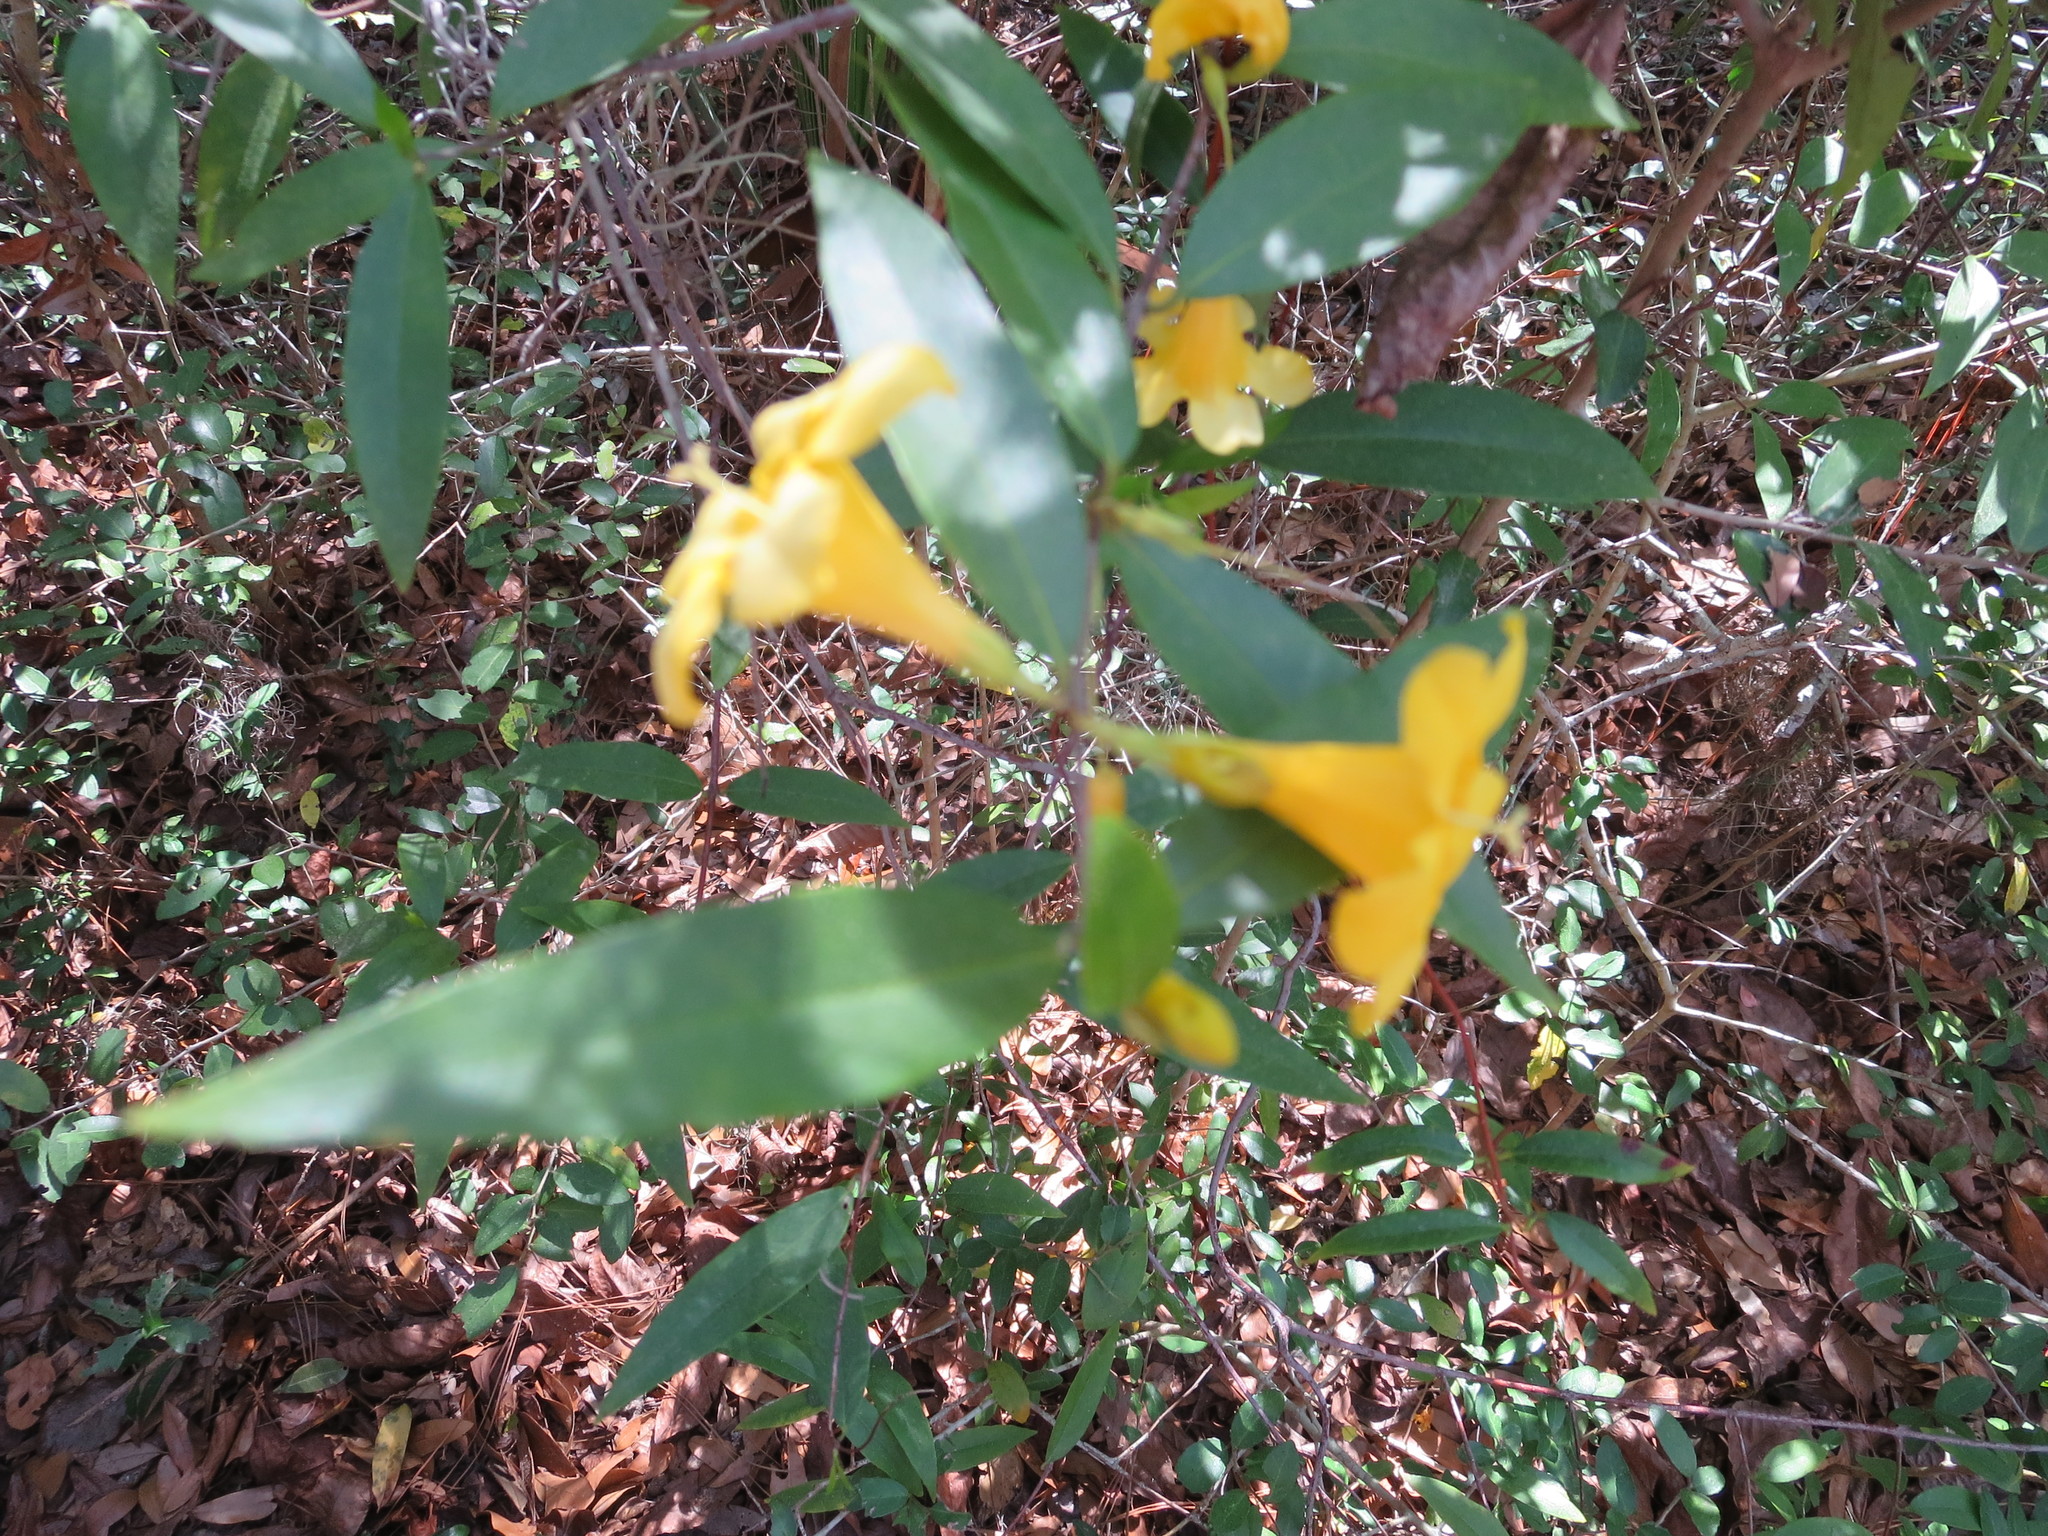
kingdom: Plantae
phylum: Tracheophyta
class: Magnoliopsida
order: Gentianales
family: Gelsemiaceae
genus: Gelsemium
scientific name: Gelsemium sempervirens
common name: Carolina-jasmine
